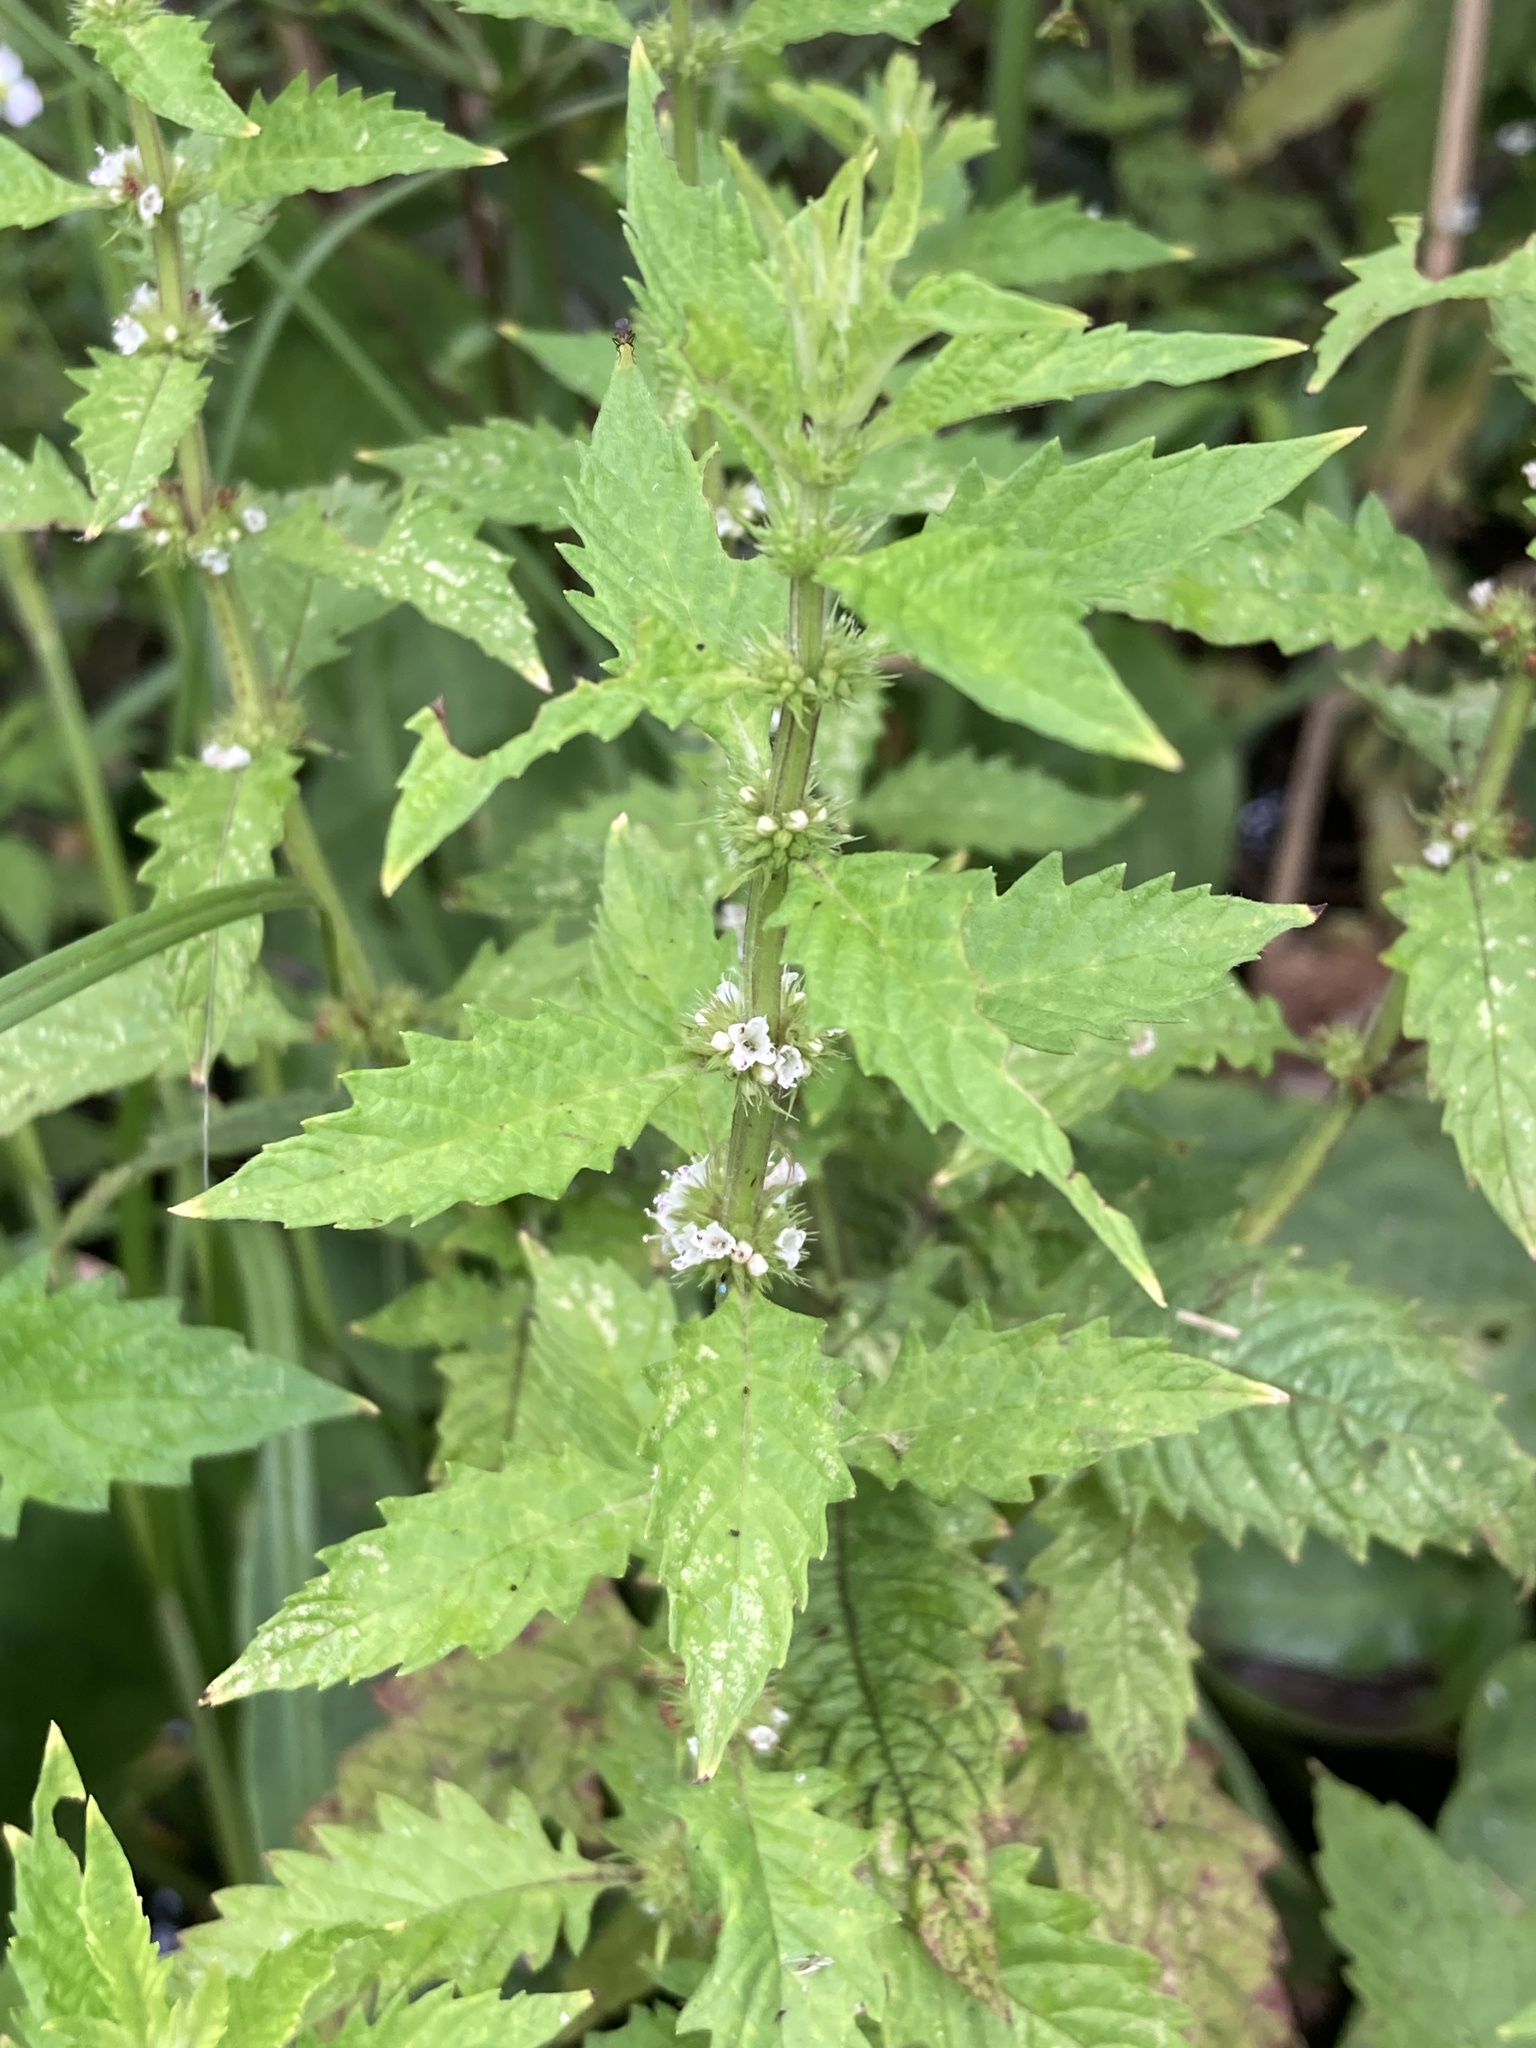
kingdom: Plantae
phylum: Tracheophyta
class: Magnoliopsida
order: Lamiales
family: Lamiaceae
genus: Lycopus
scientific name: Lycopus europaeus
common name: European bugleweed
